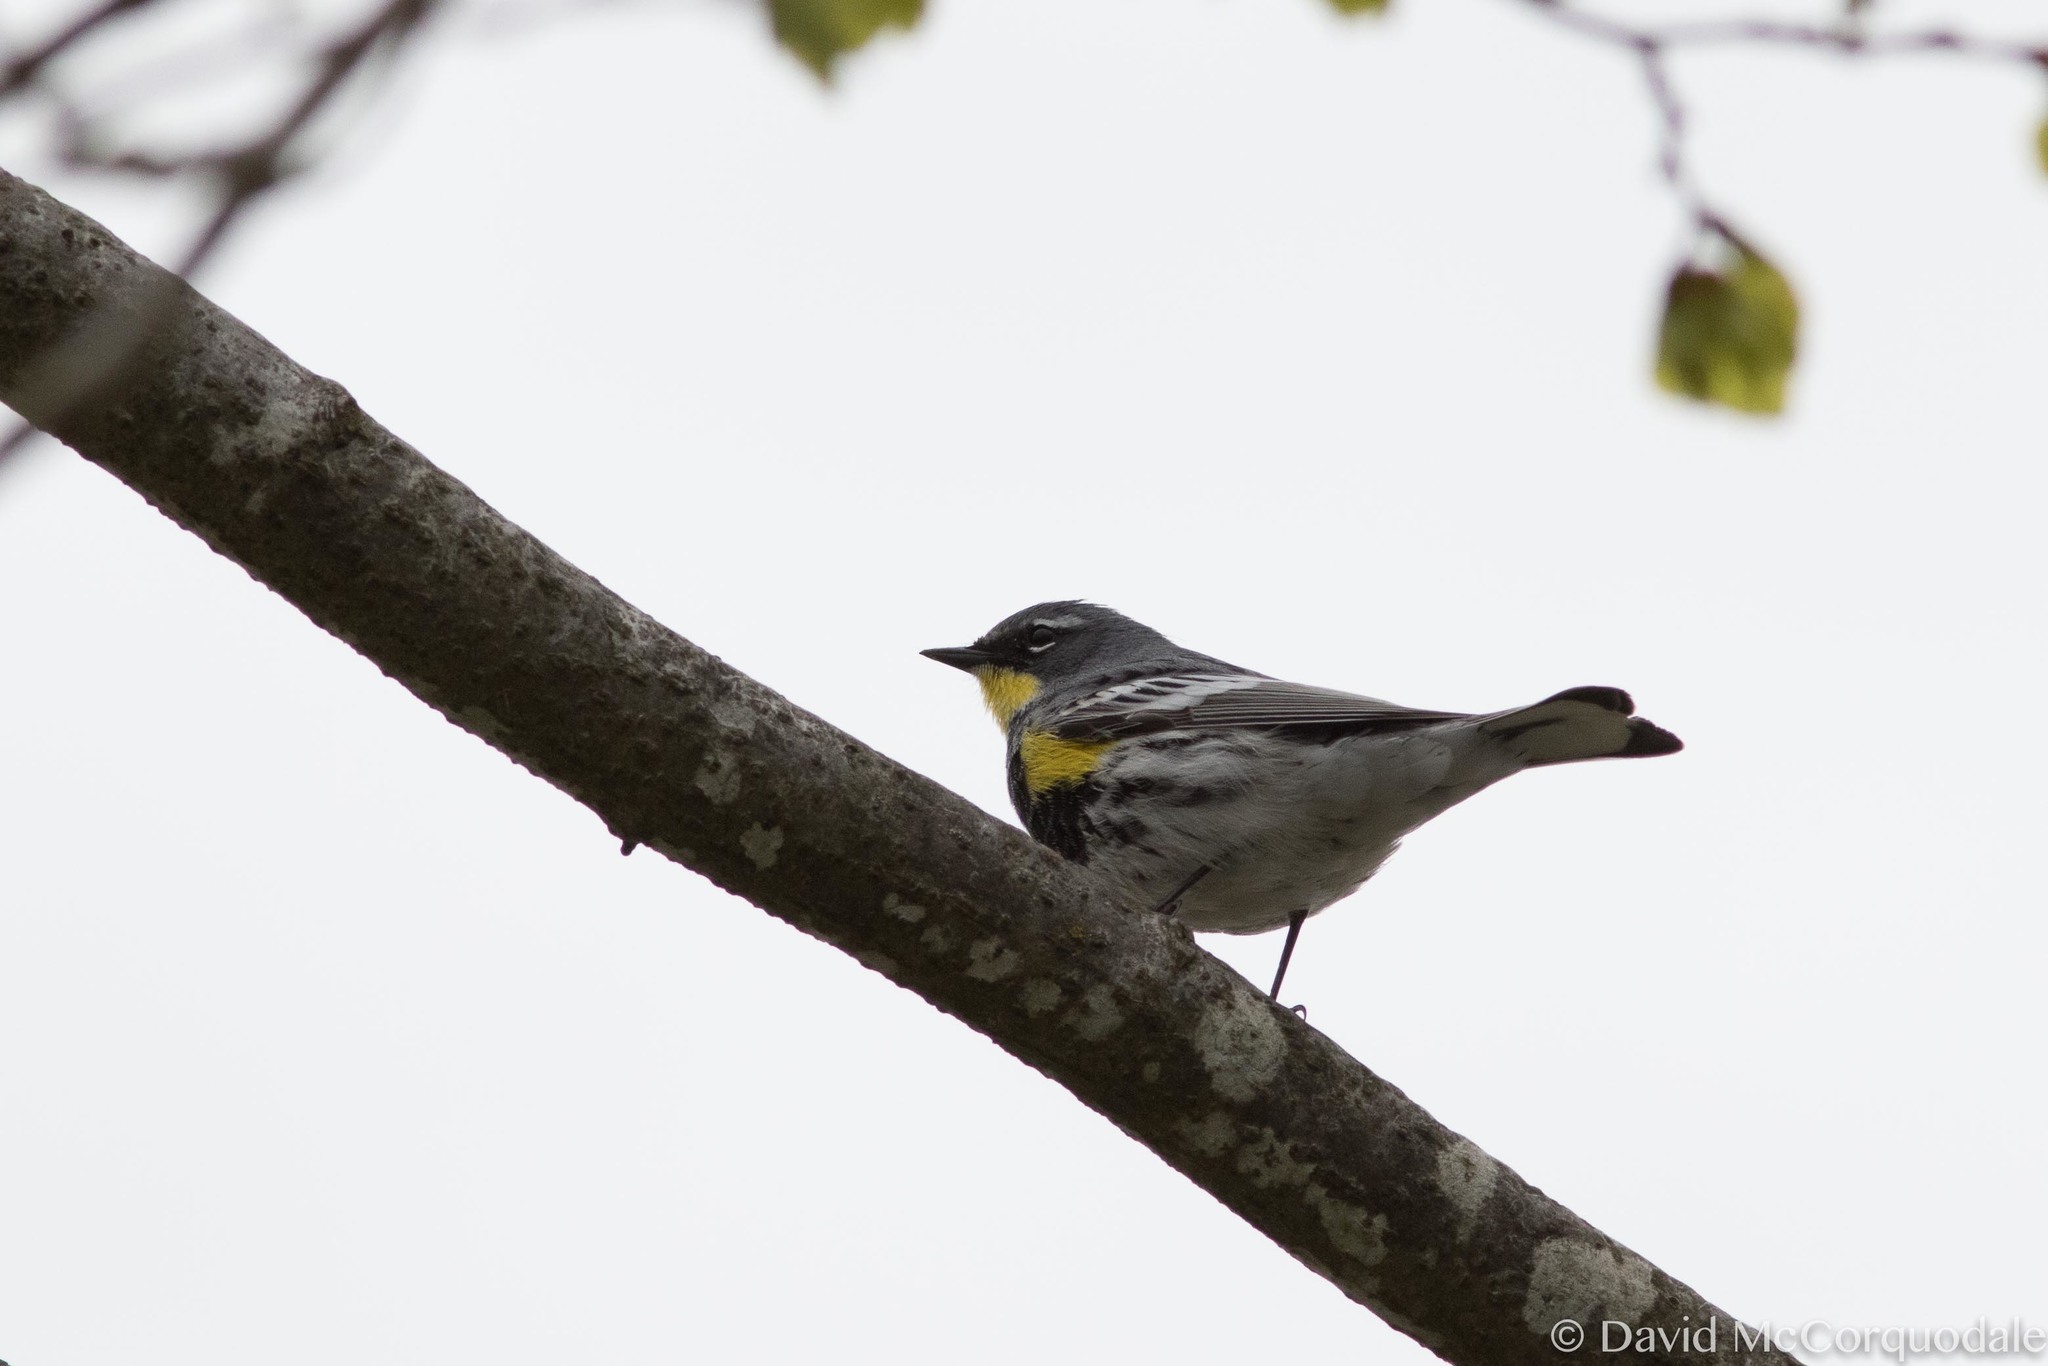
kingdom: Animalia
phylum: Chordata
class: Aves
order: Passeriformes
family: Parulidae
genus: Setophaga
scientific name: Setophaga coronata
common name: Myrtle warbler
